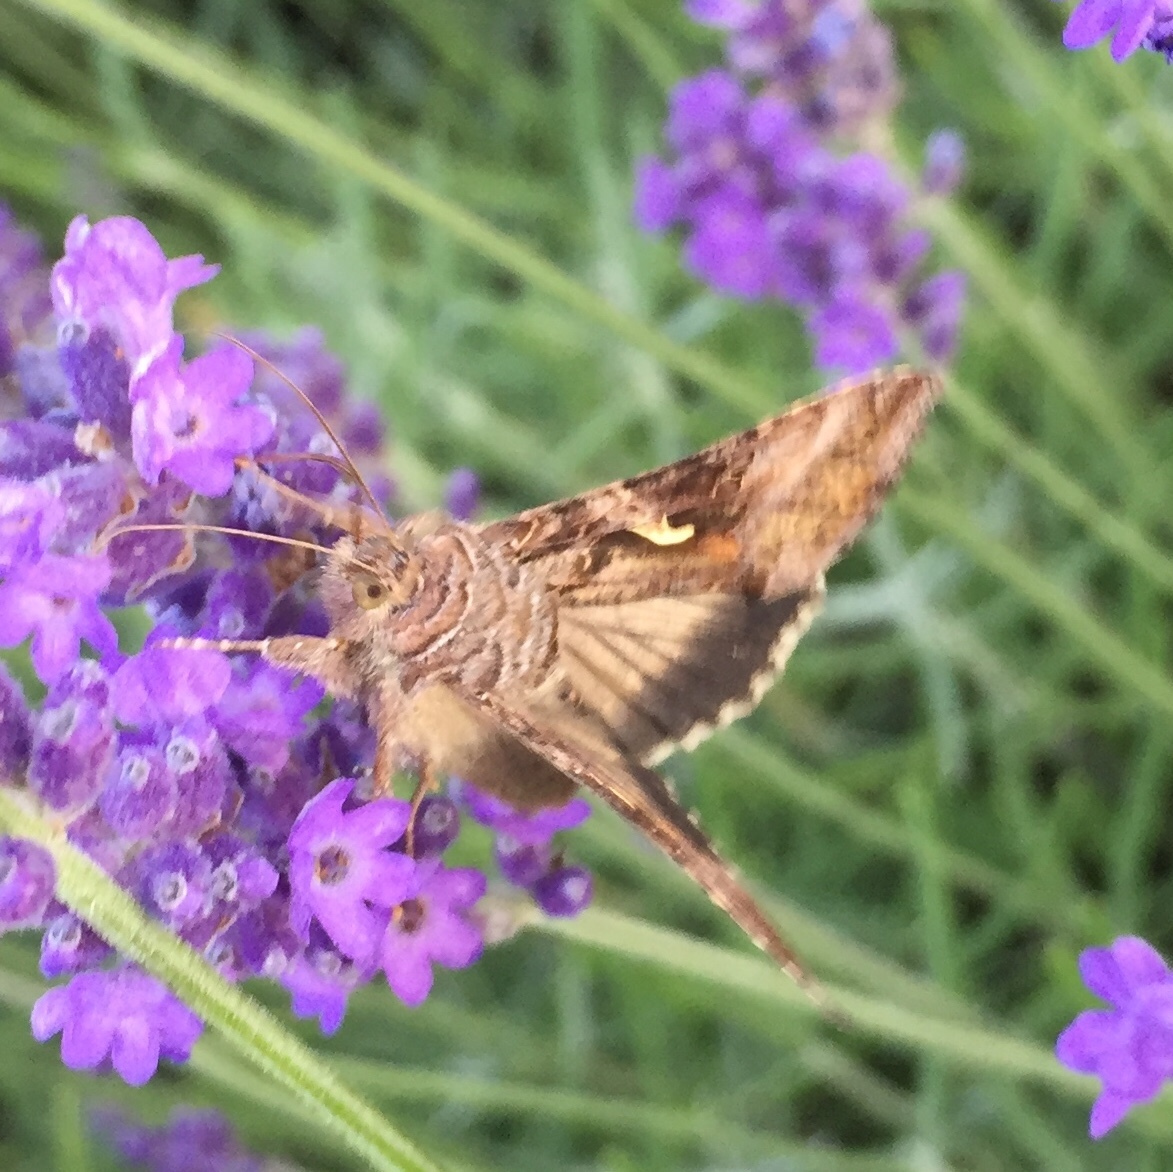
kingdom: Animalia
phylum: Arthropoda
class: Insecta
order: Lepidoptera
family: Noctuidae
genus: Autographa
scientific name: Autographa gamma
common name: Silver y
